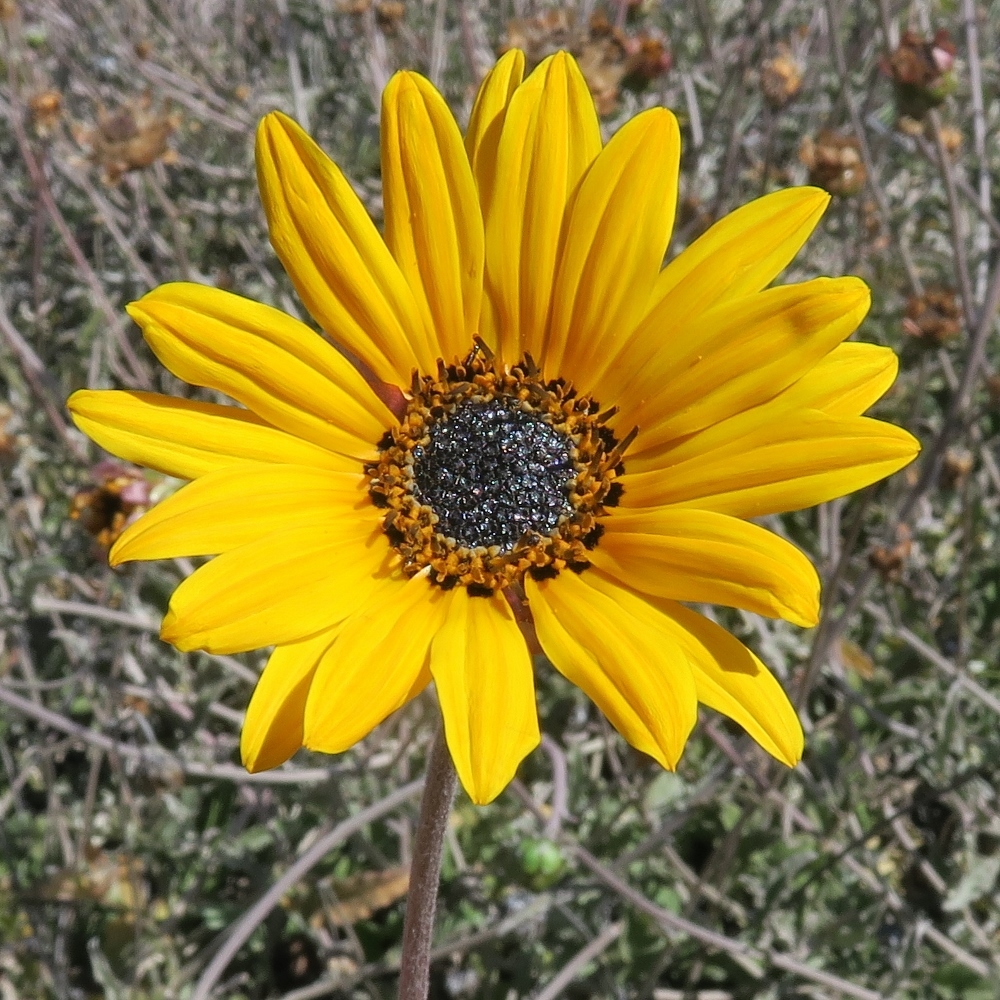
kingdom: Plantae
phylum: Tracheophyta
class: Magnoliopsida
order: Asterales
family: Asteraceae
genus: Arctotis
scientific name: Arctotis auriculata
